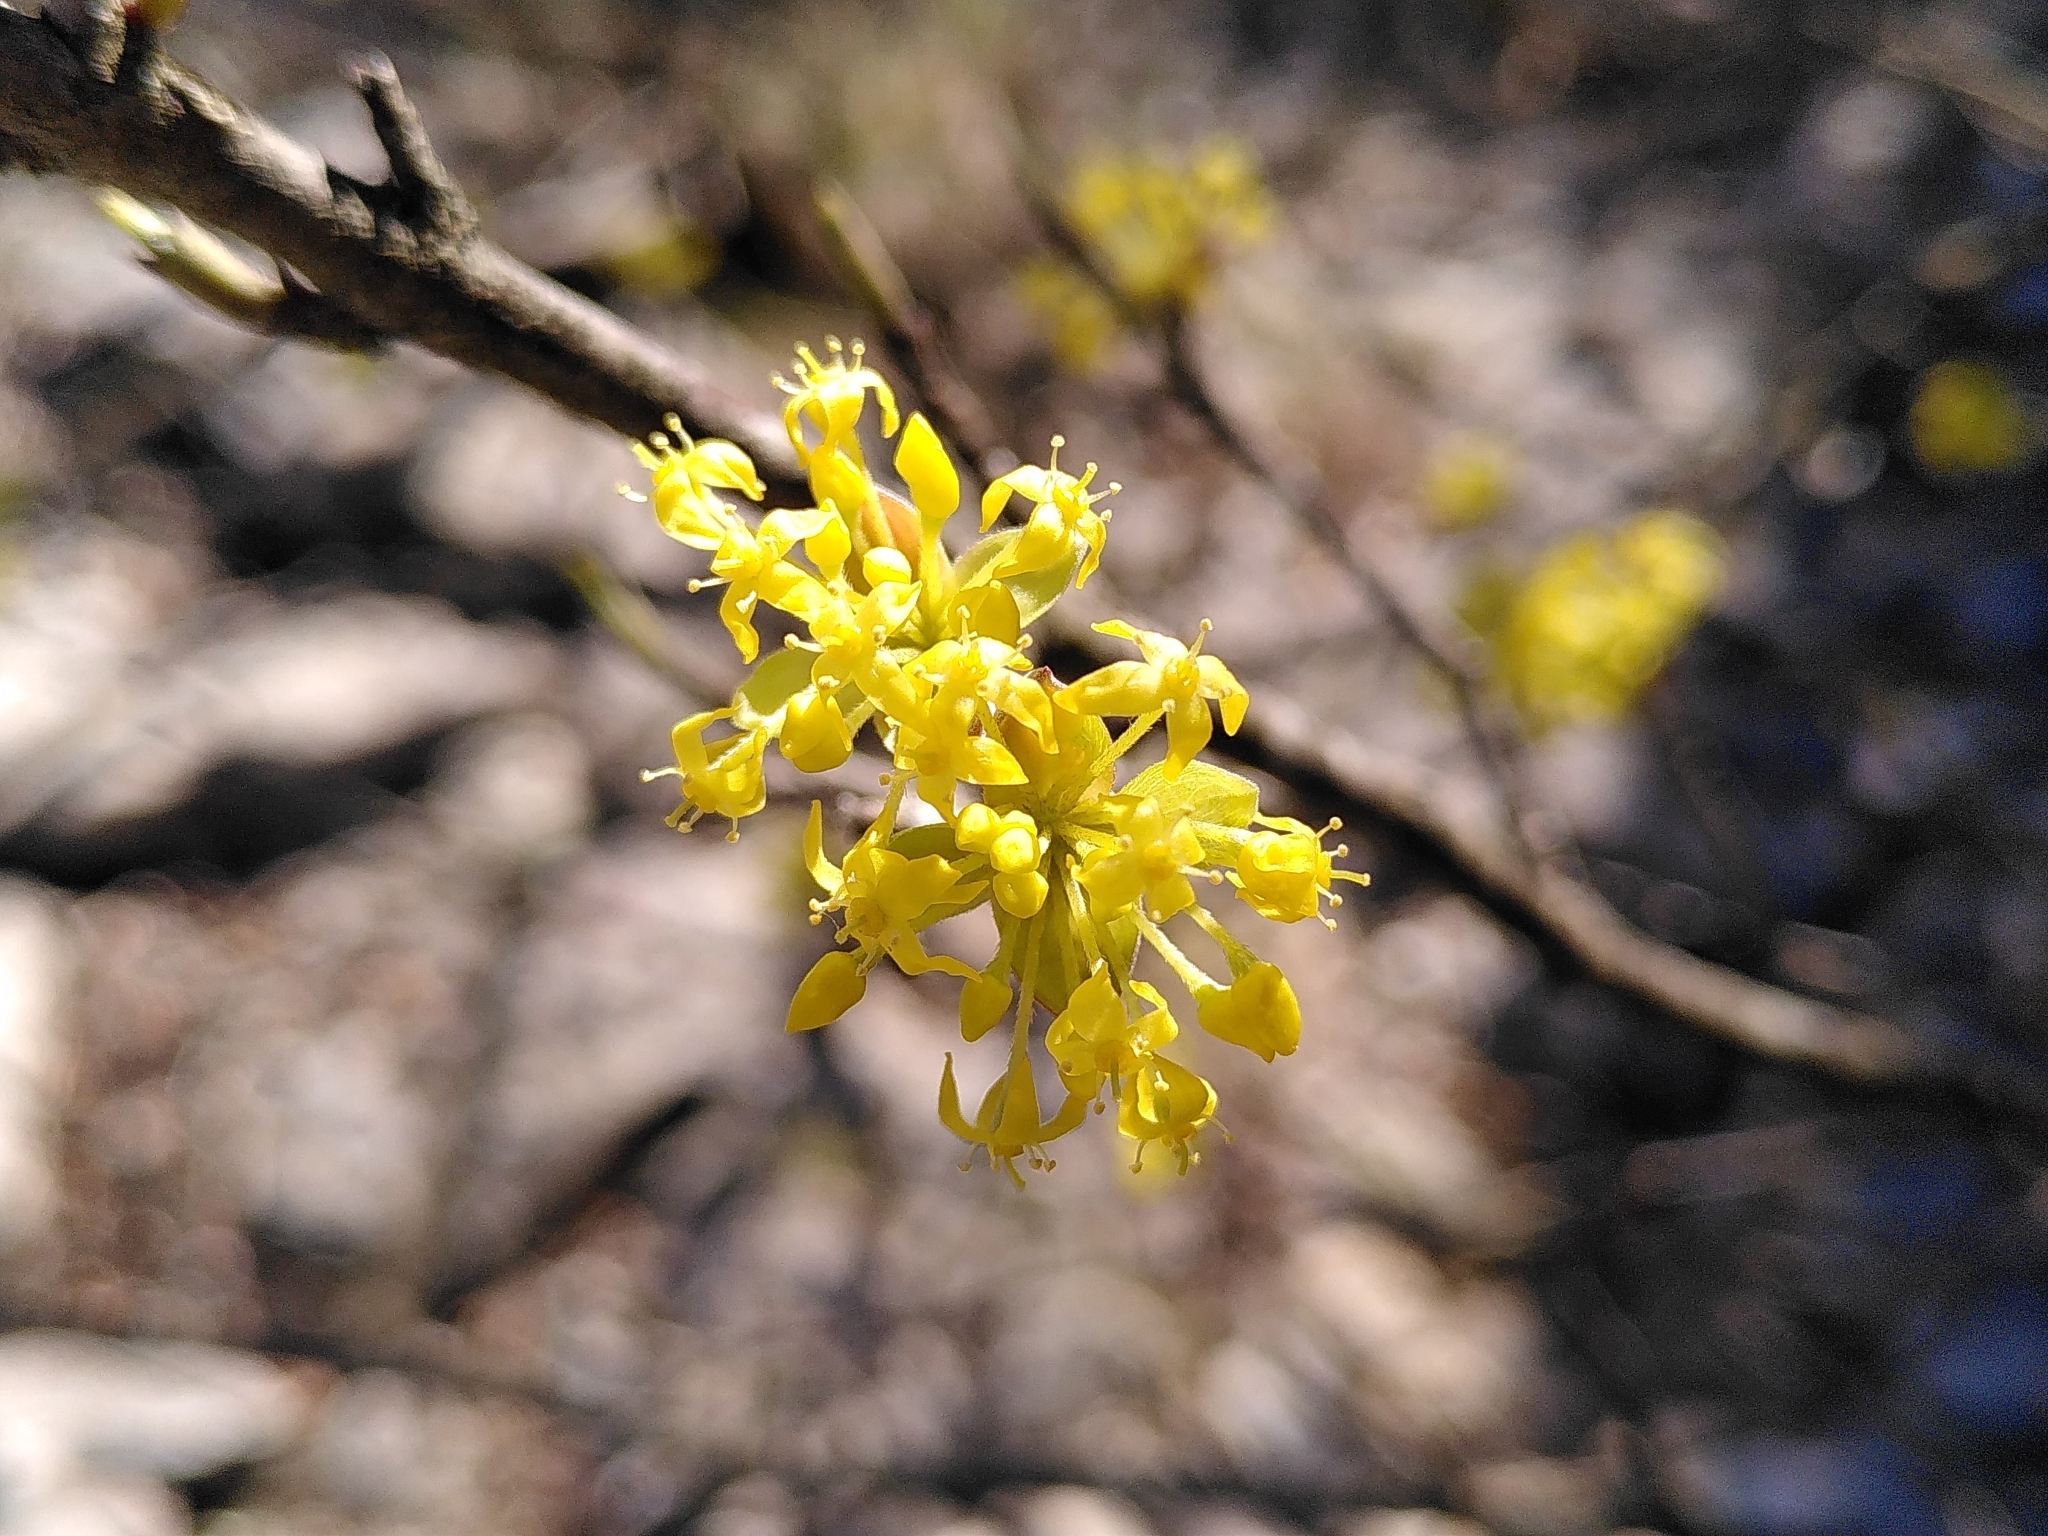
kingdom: Plantae
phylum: Tracheophyta
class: Magnoliopsida
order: Cornales
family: Cornaceae
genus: Cornus
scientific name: Cornus mas
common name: Cornelian-cherry
